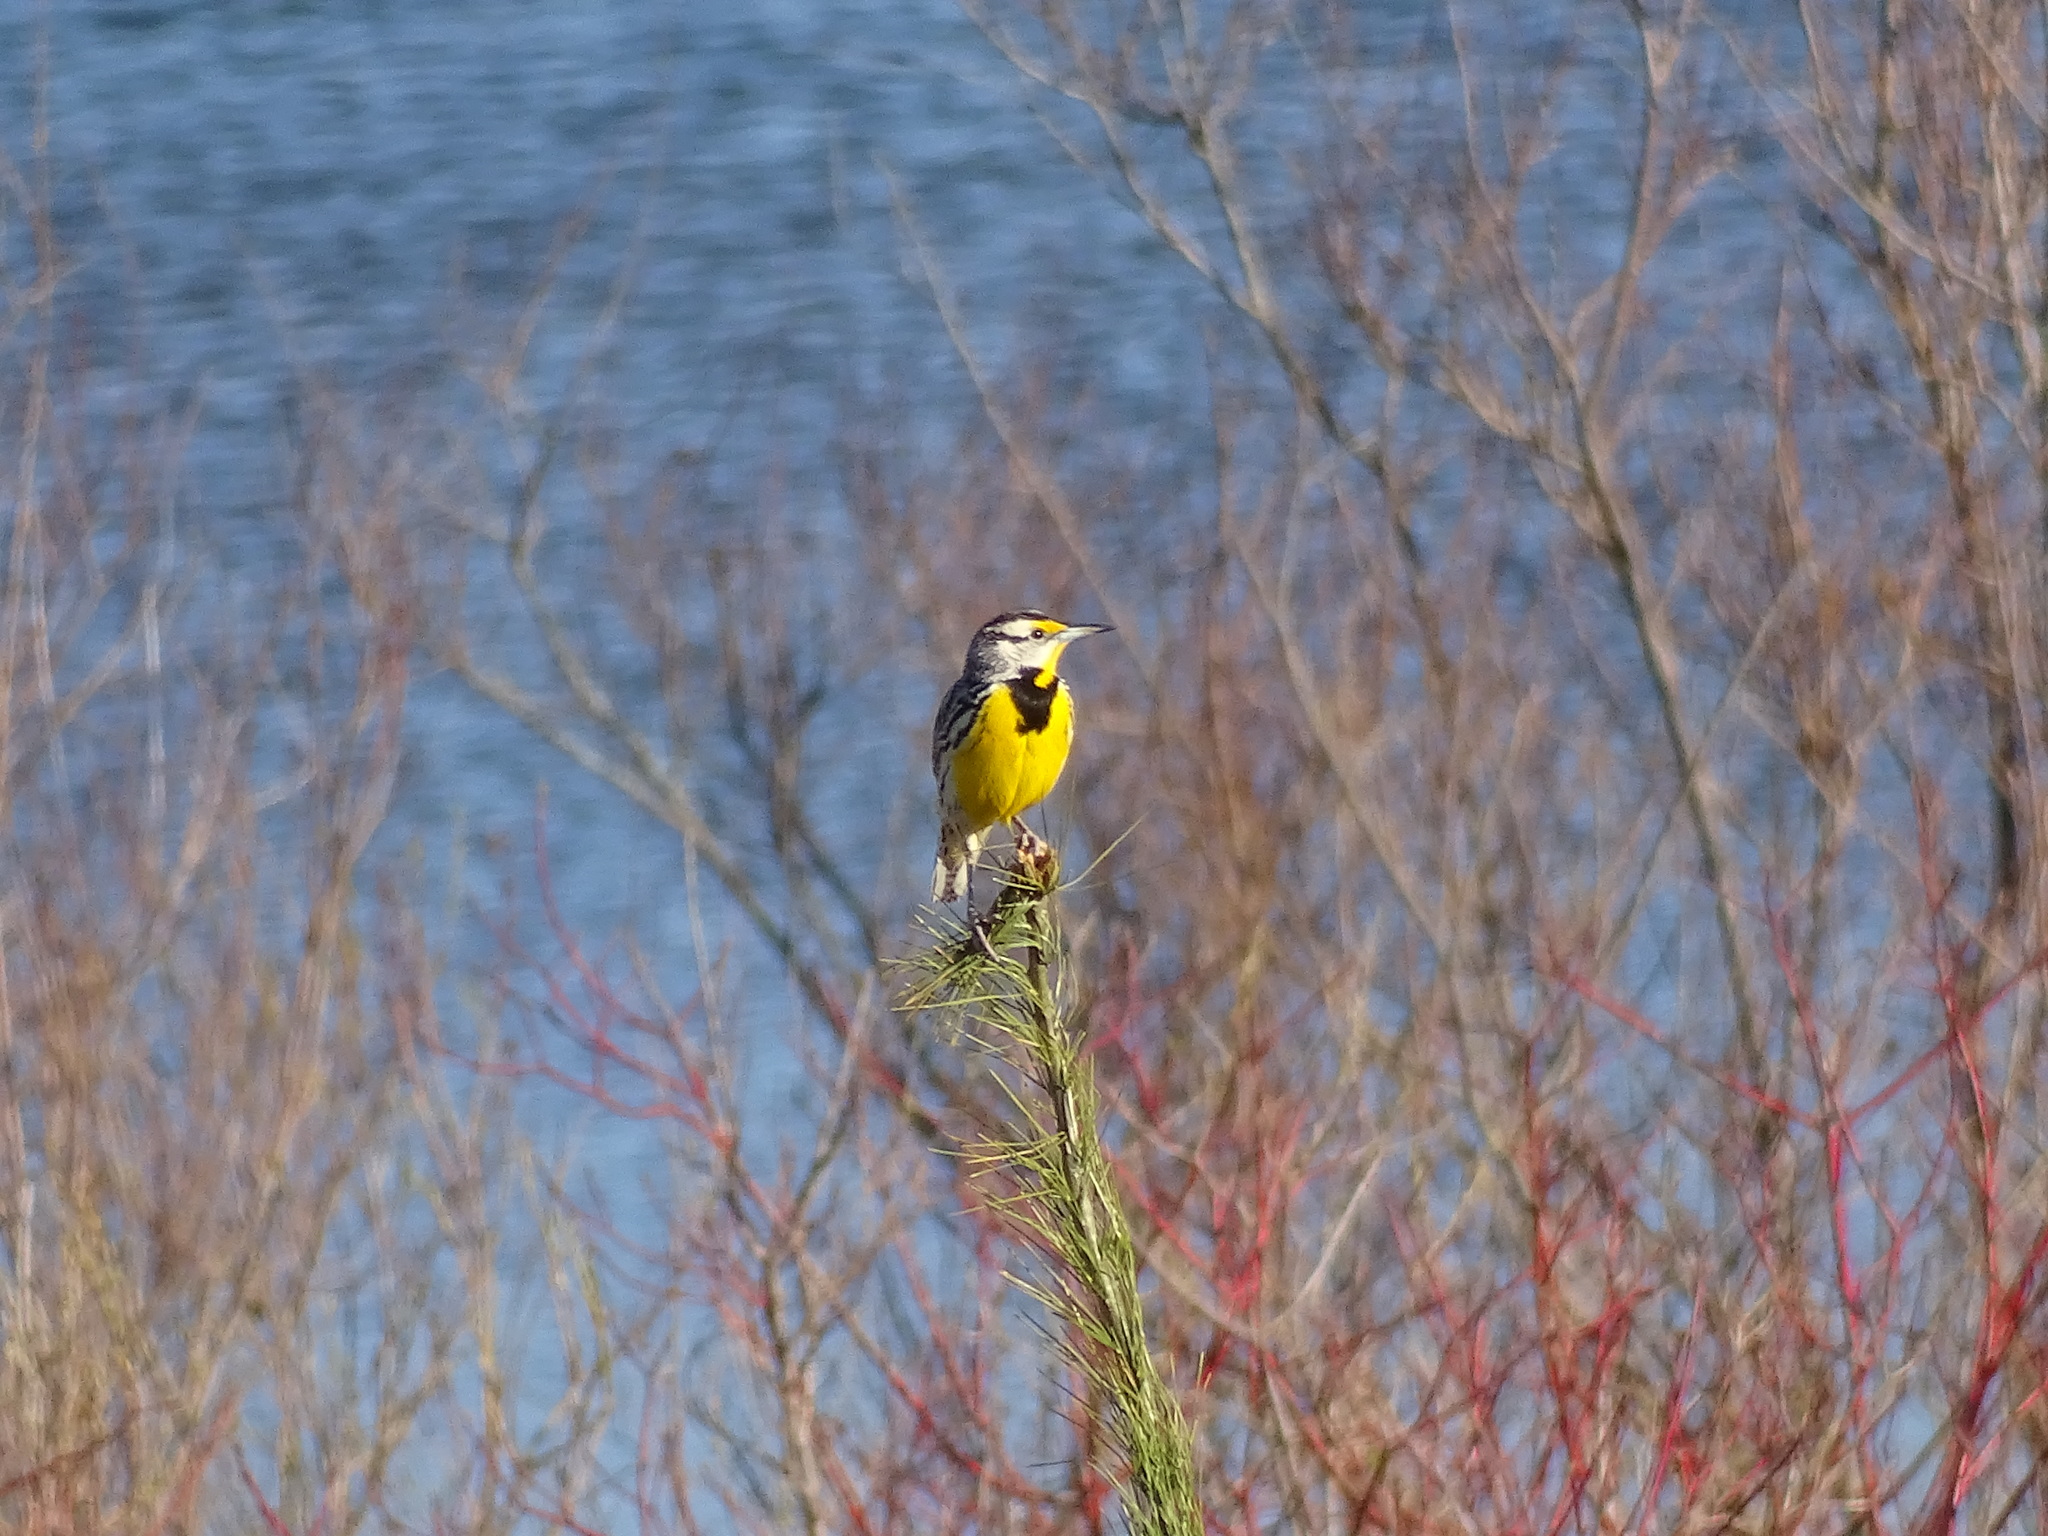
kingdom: Animalia
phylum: Chordata
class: Aves
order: Passeriformes
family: Icteridae
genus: Sturnella
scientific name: Sturnella magna
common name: Eastern meadowlark
